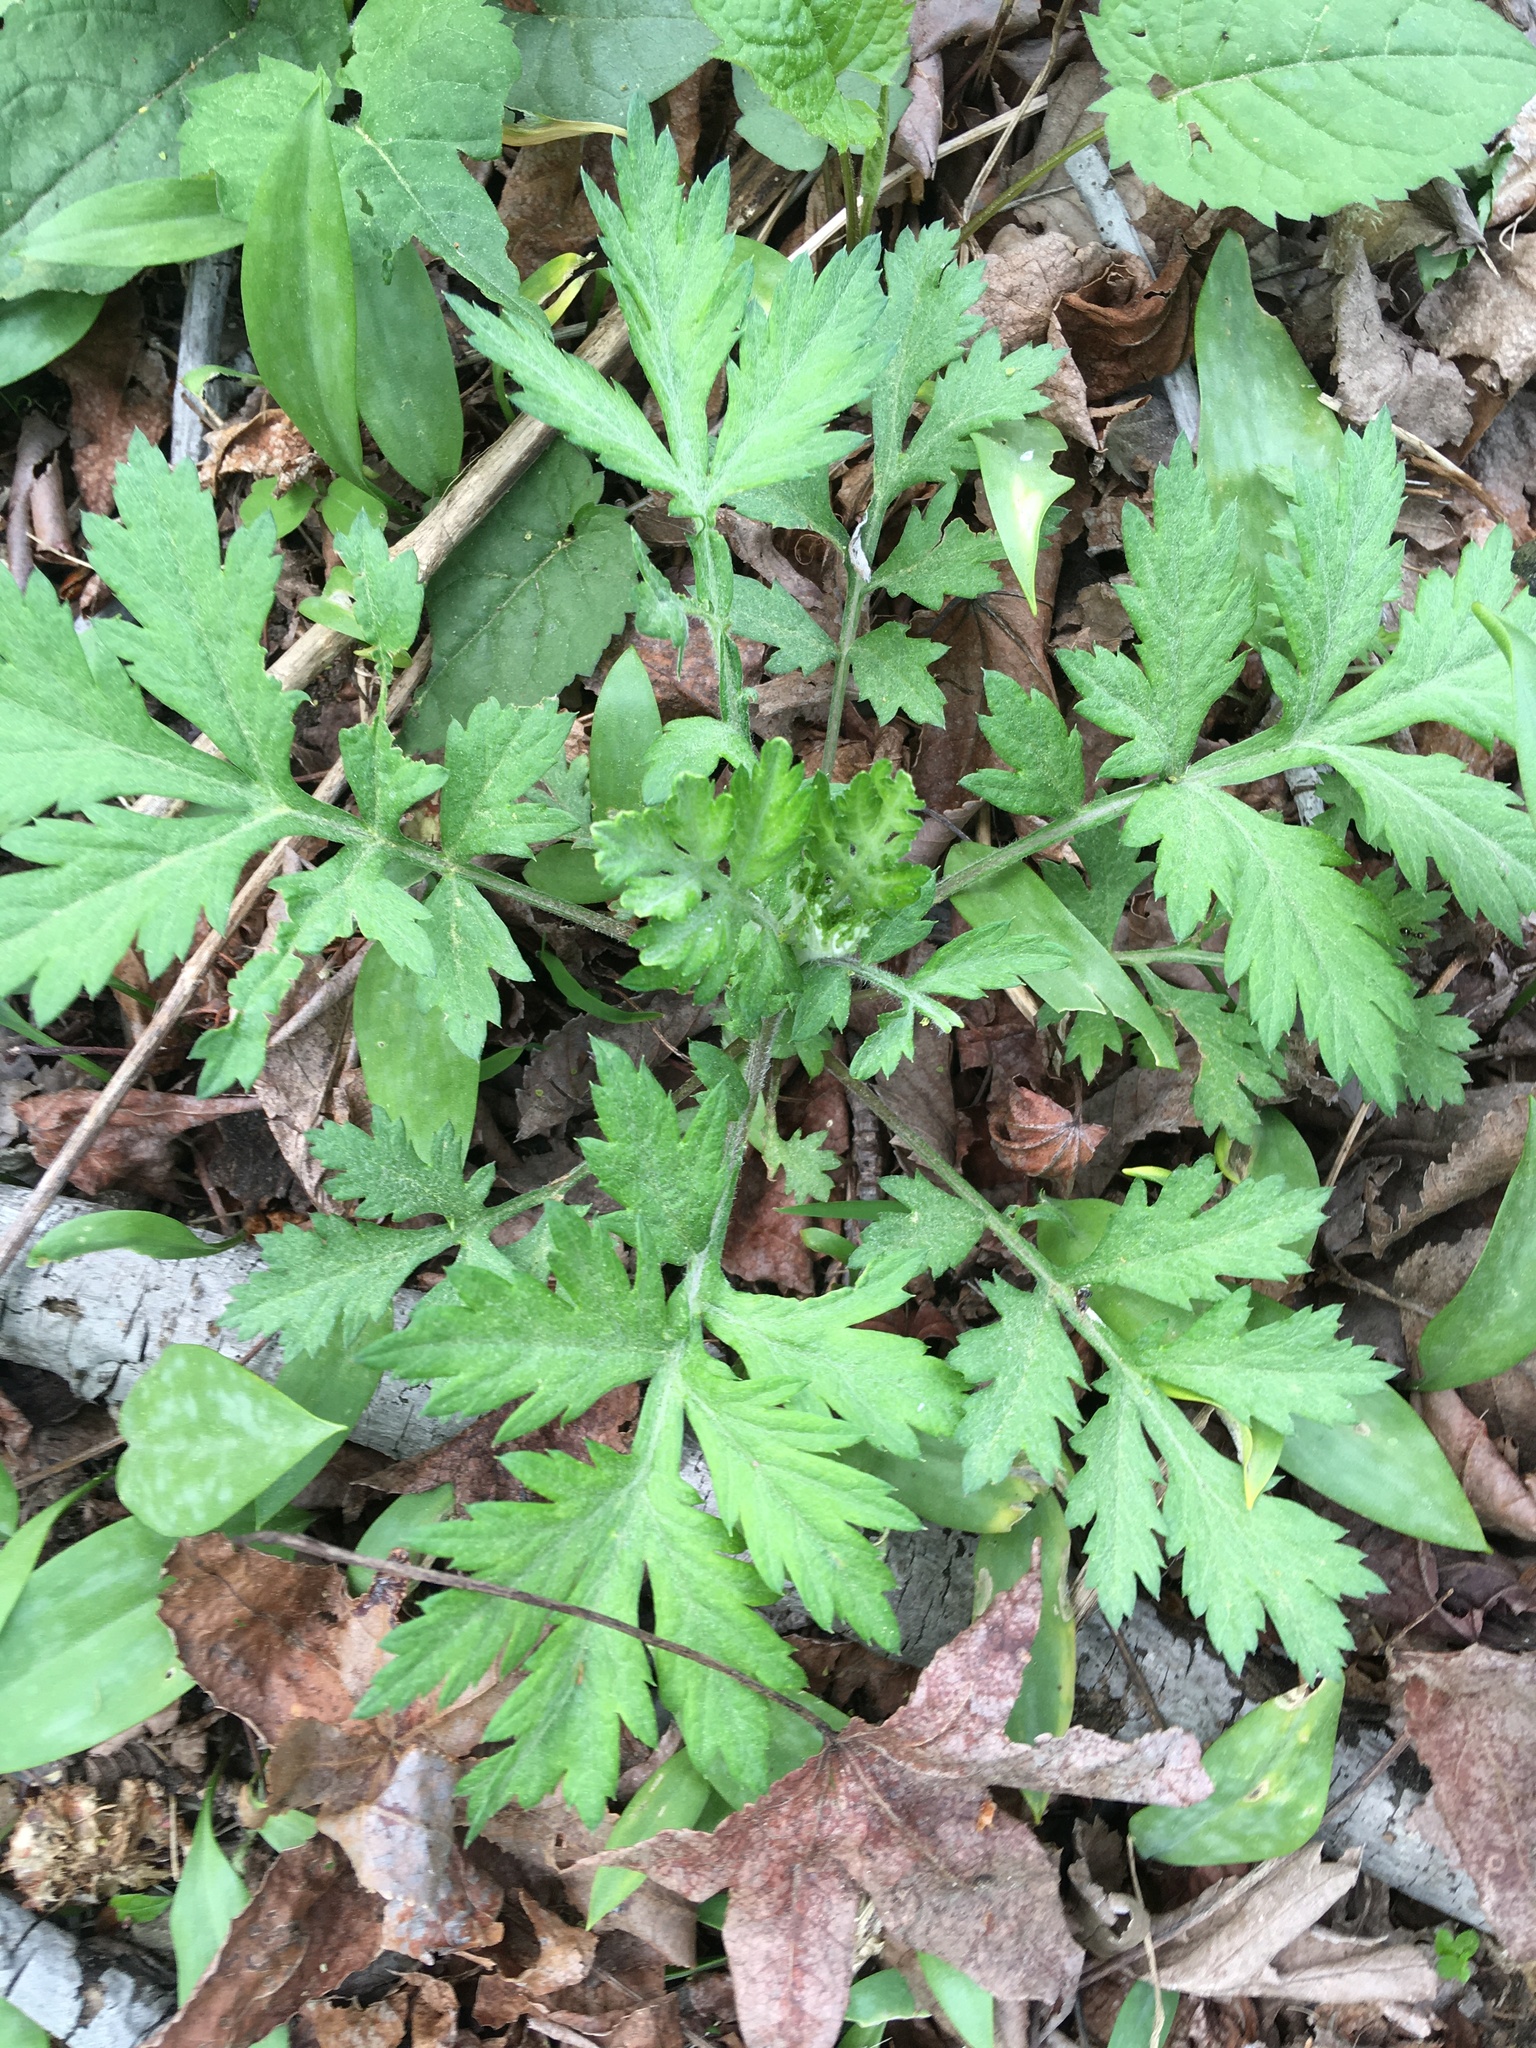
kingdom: Plantae
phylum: Tracheophyta
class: Magnoliopsida
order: Asterales
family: Asteraceae
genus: Artemisia
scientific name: Artemisia vulgaris
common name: Mugwort
